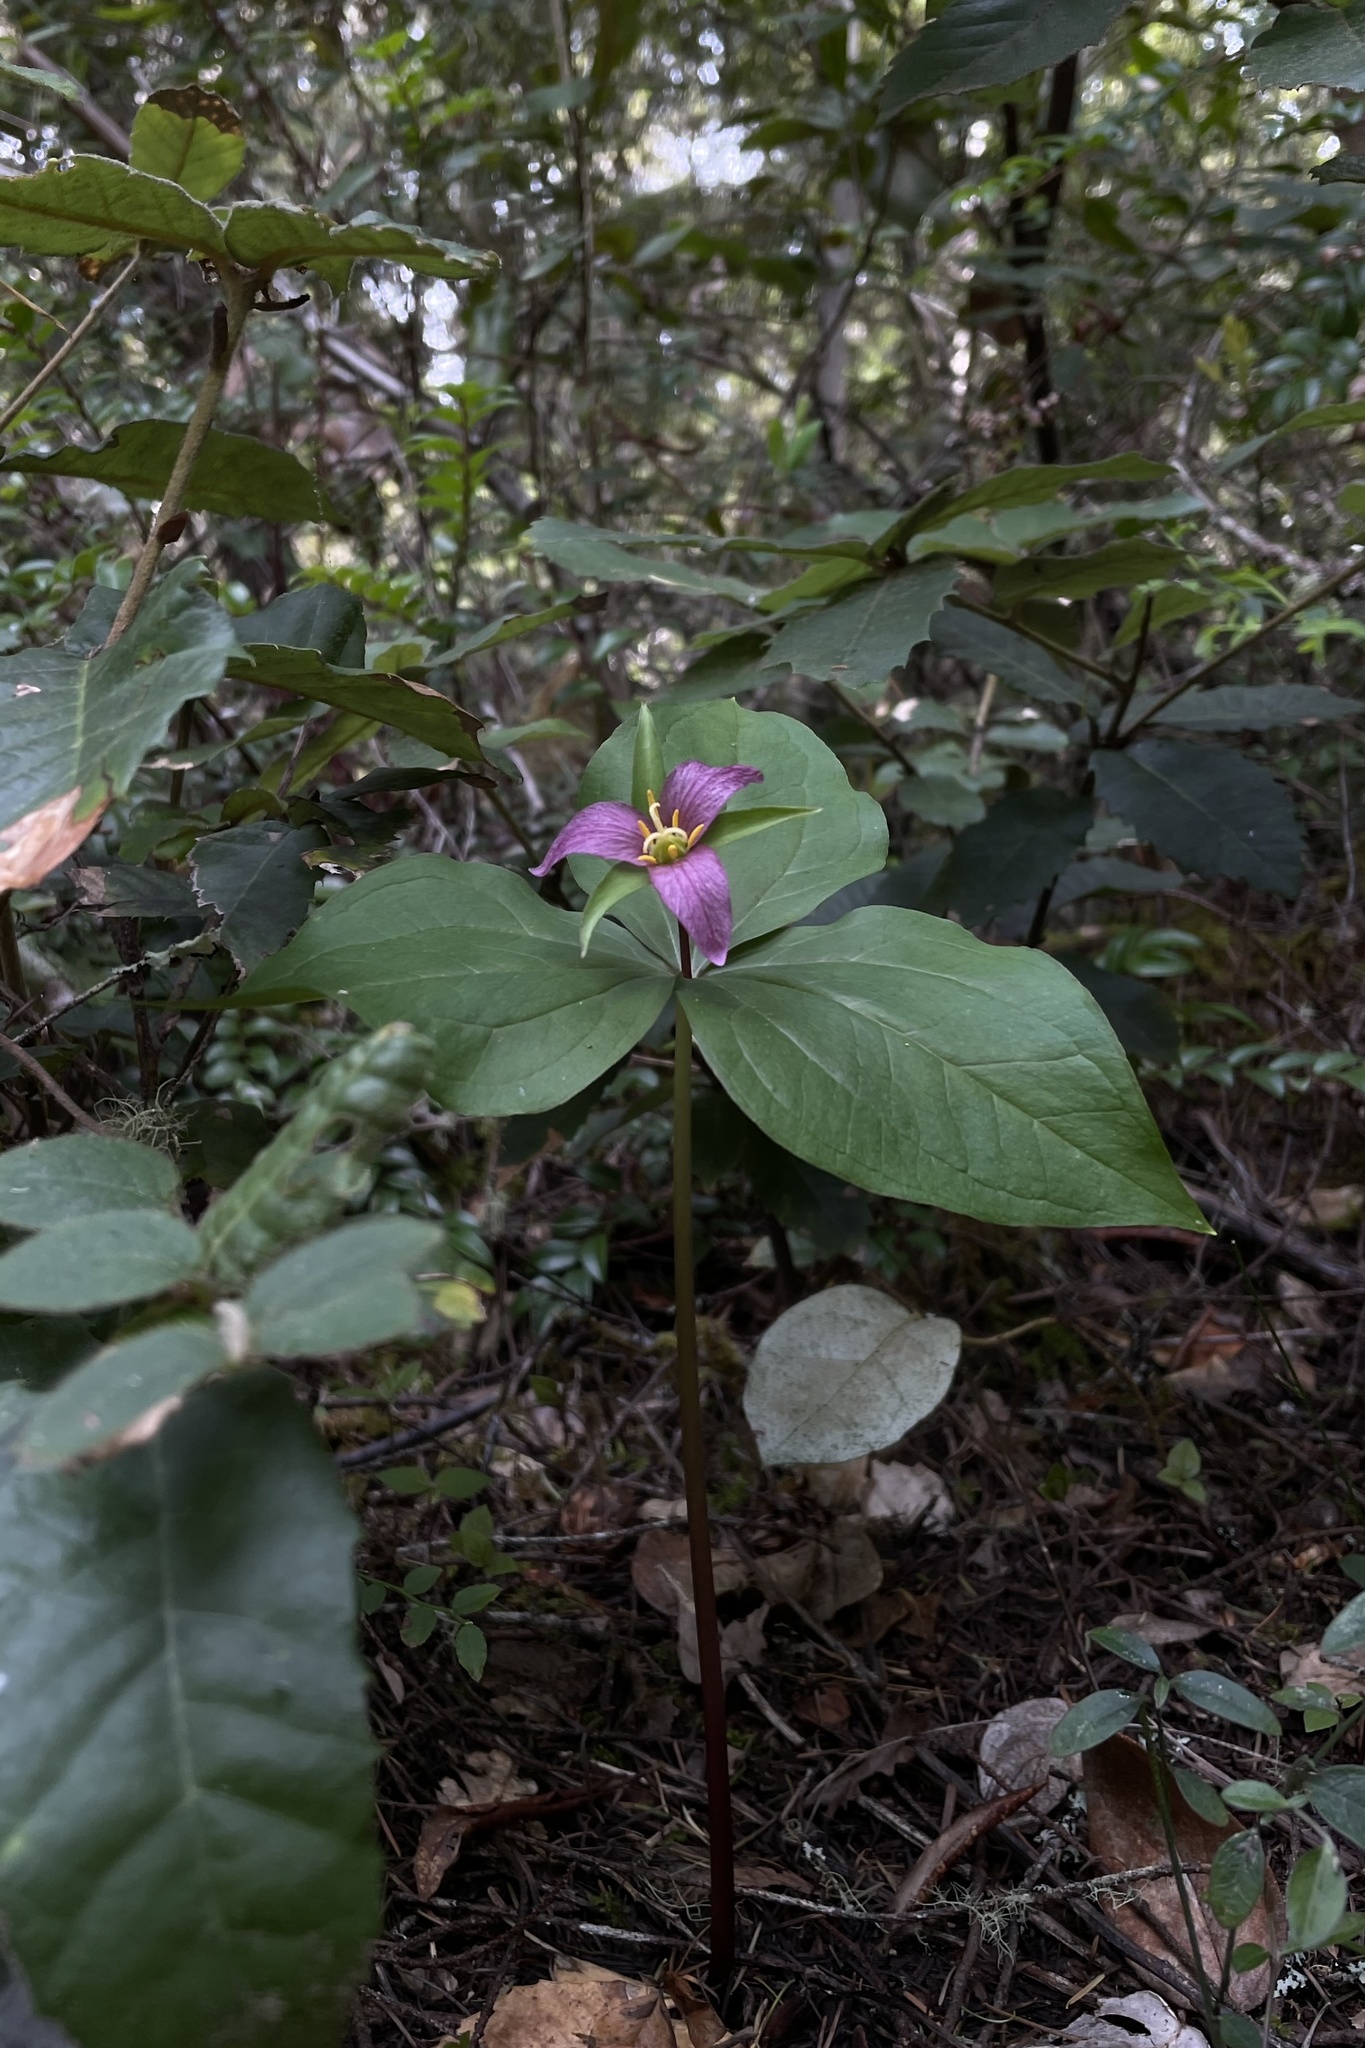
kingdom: Plantae
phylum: Tracheophyta
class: Liliopsida
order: Liliales
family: Melanthiaceae
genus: Trillium
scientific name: Trillium ovatum
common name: Pacific trillium
